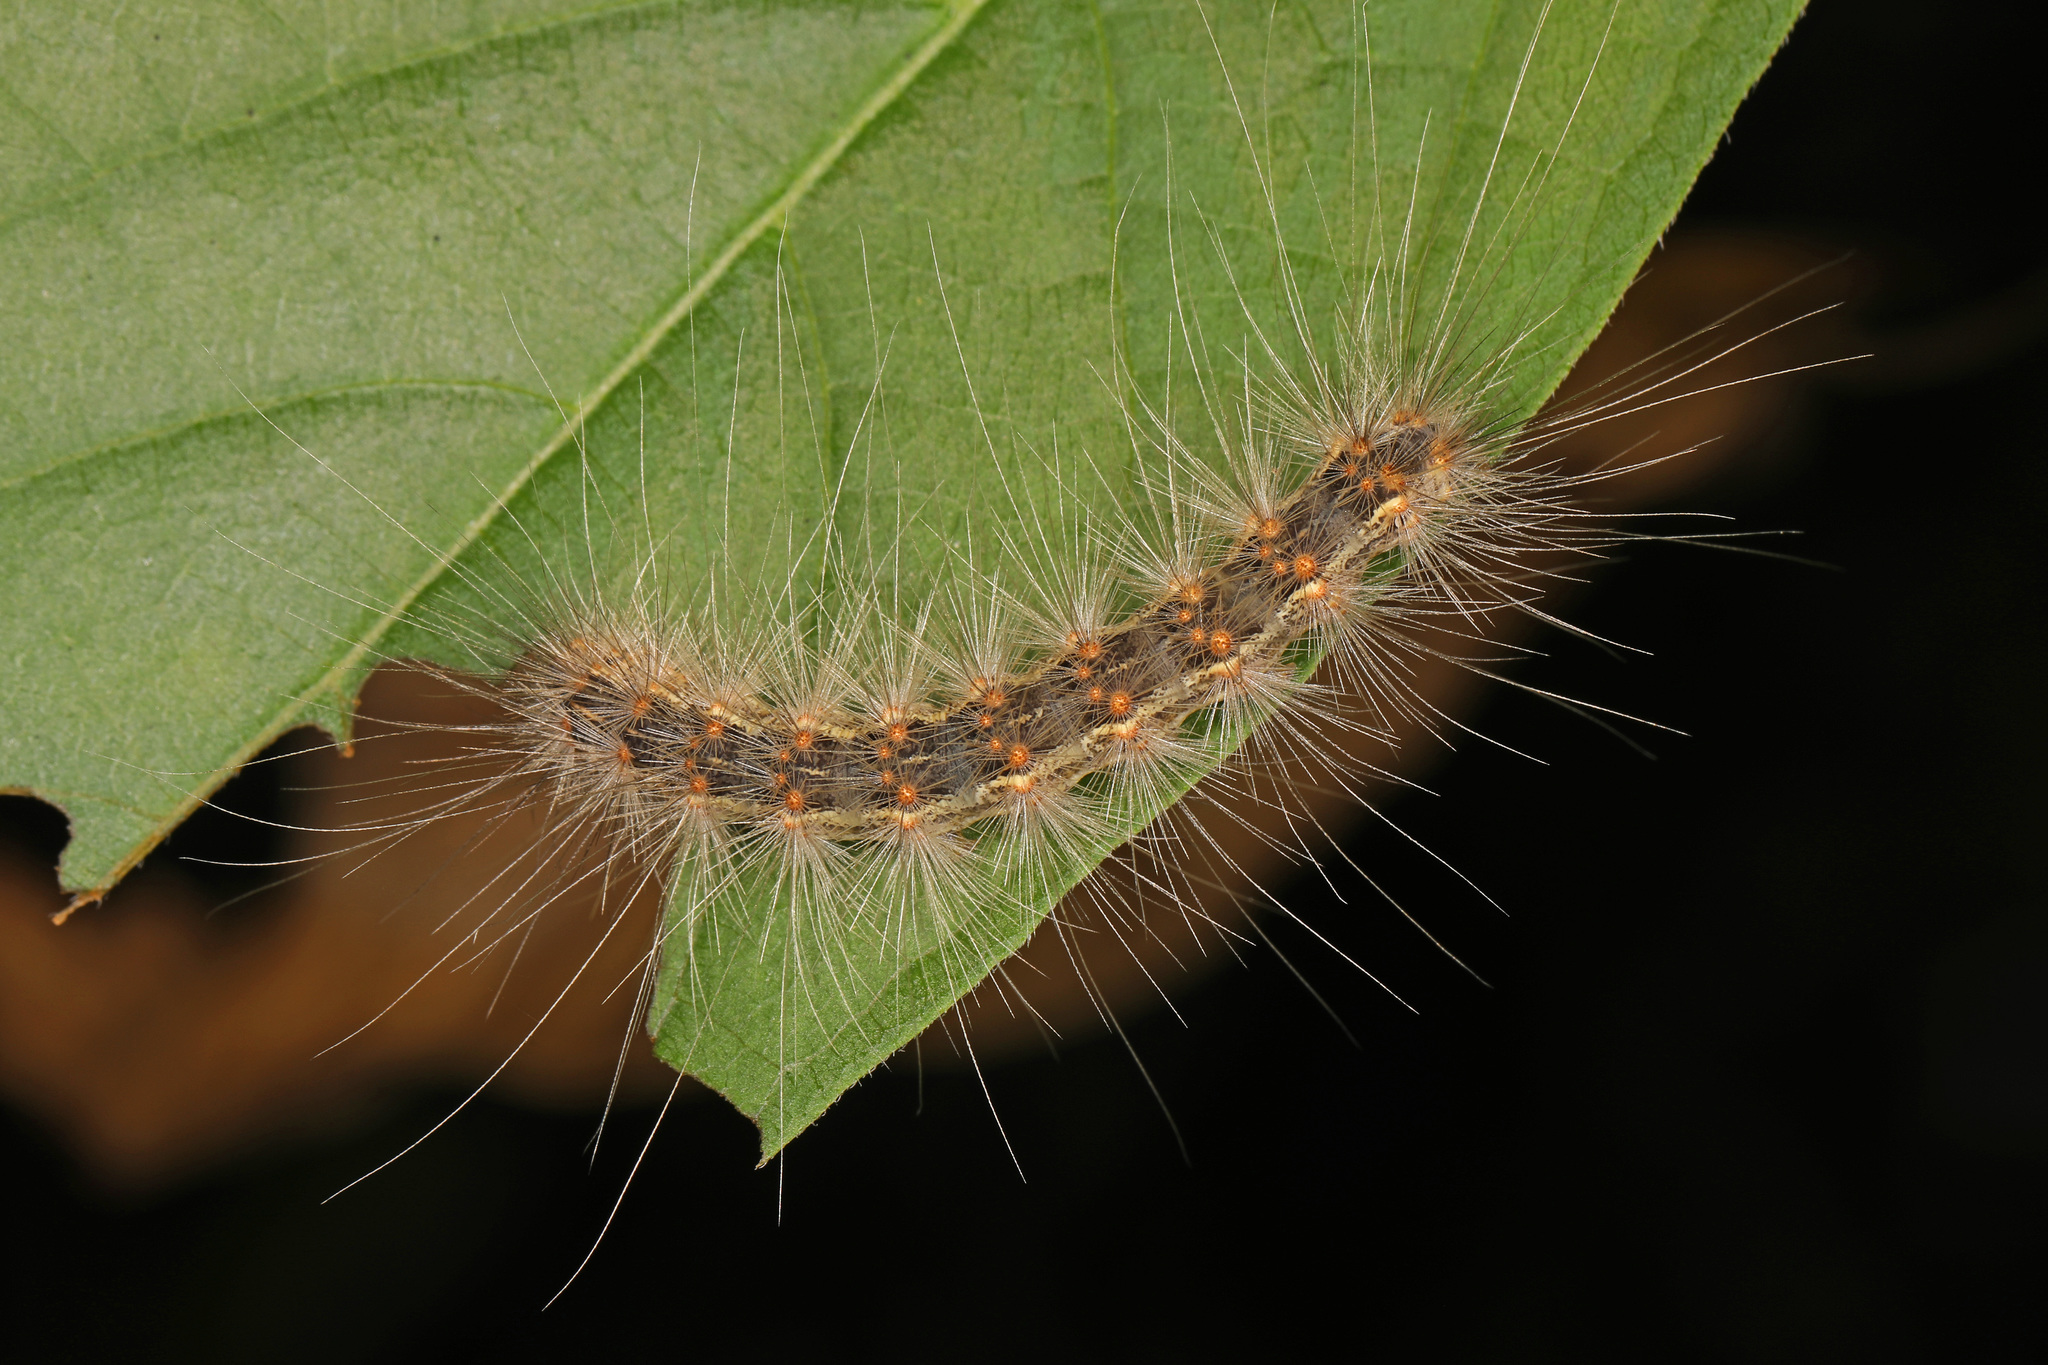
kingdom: Animalia
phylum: Arthropoda
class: Insecta
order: Lepidoptera
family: Erebidae
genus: Hyphantria
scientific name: Hyphantria cunea
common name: American white moth
